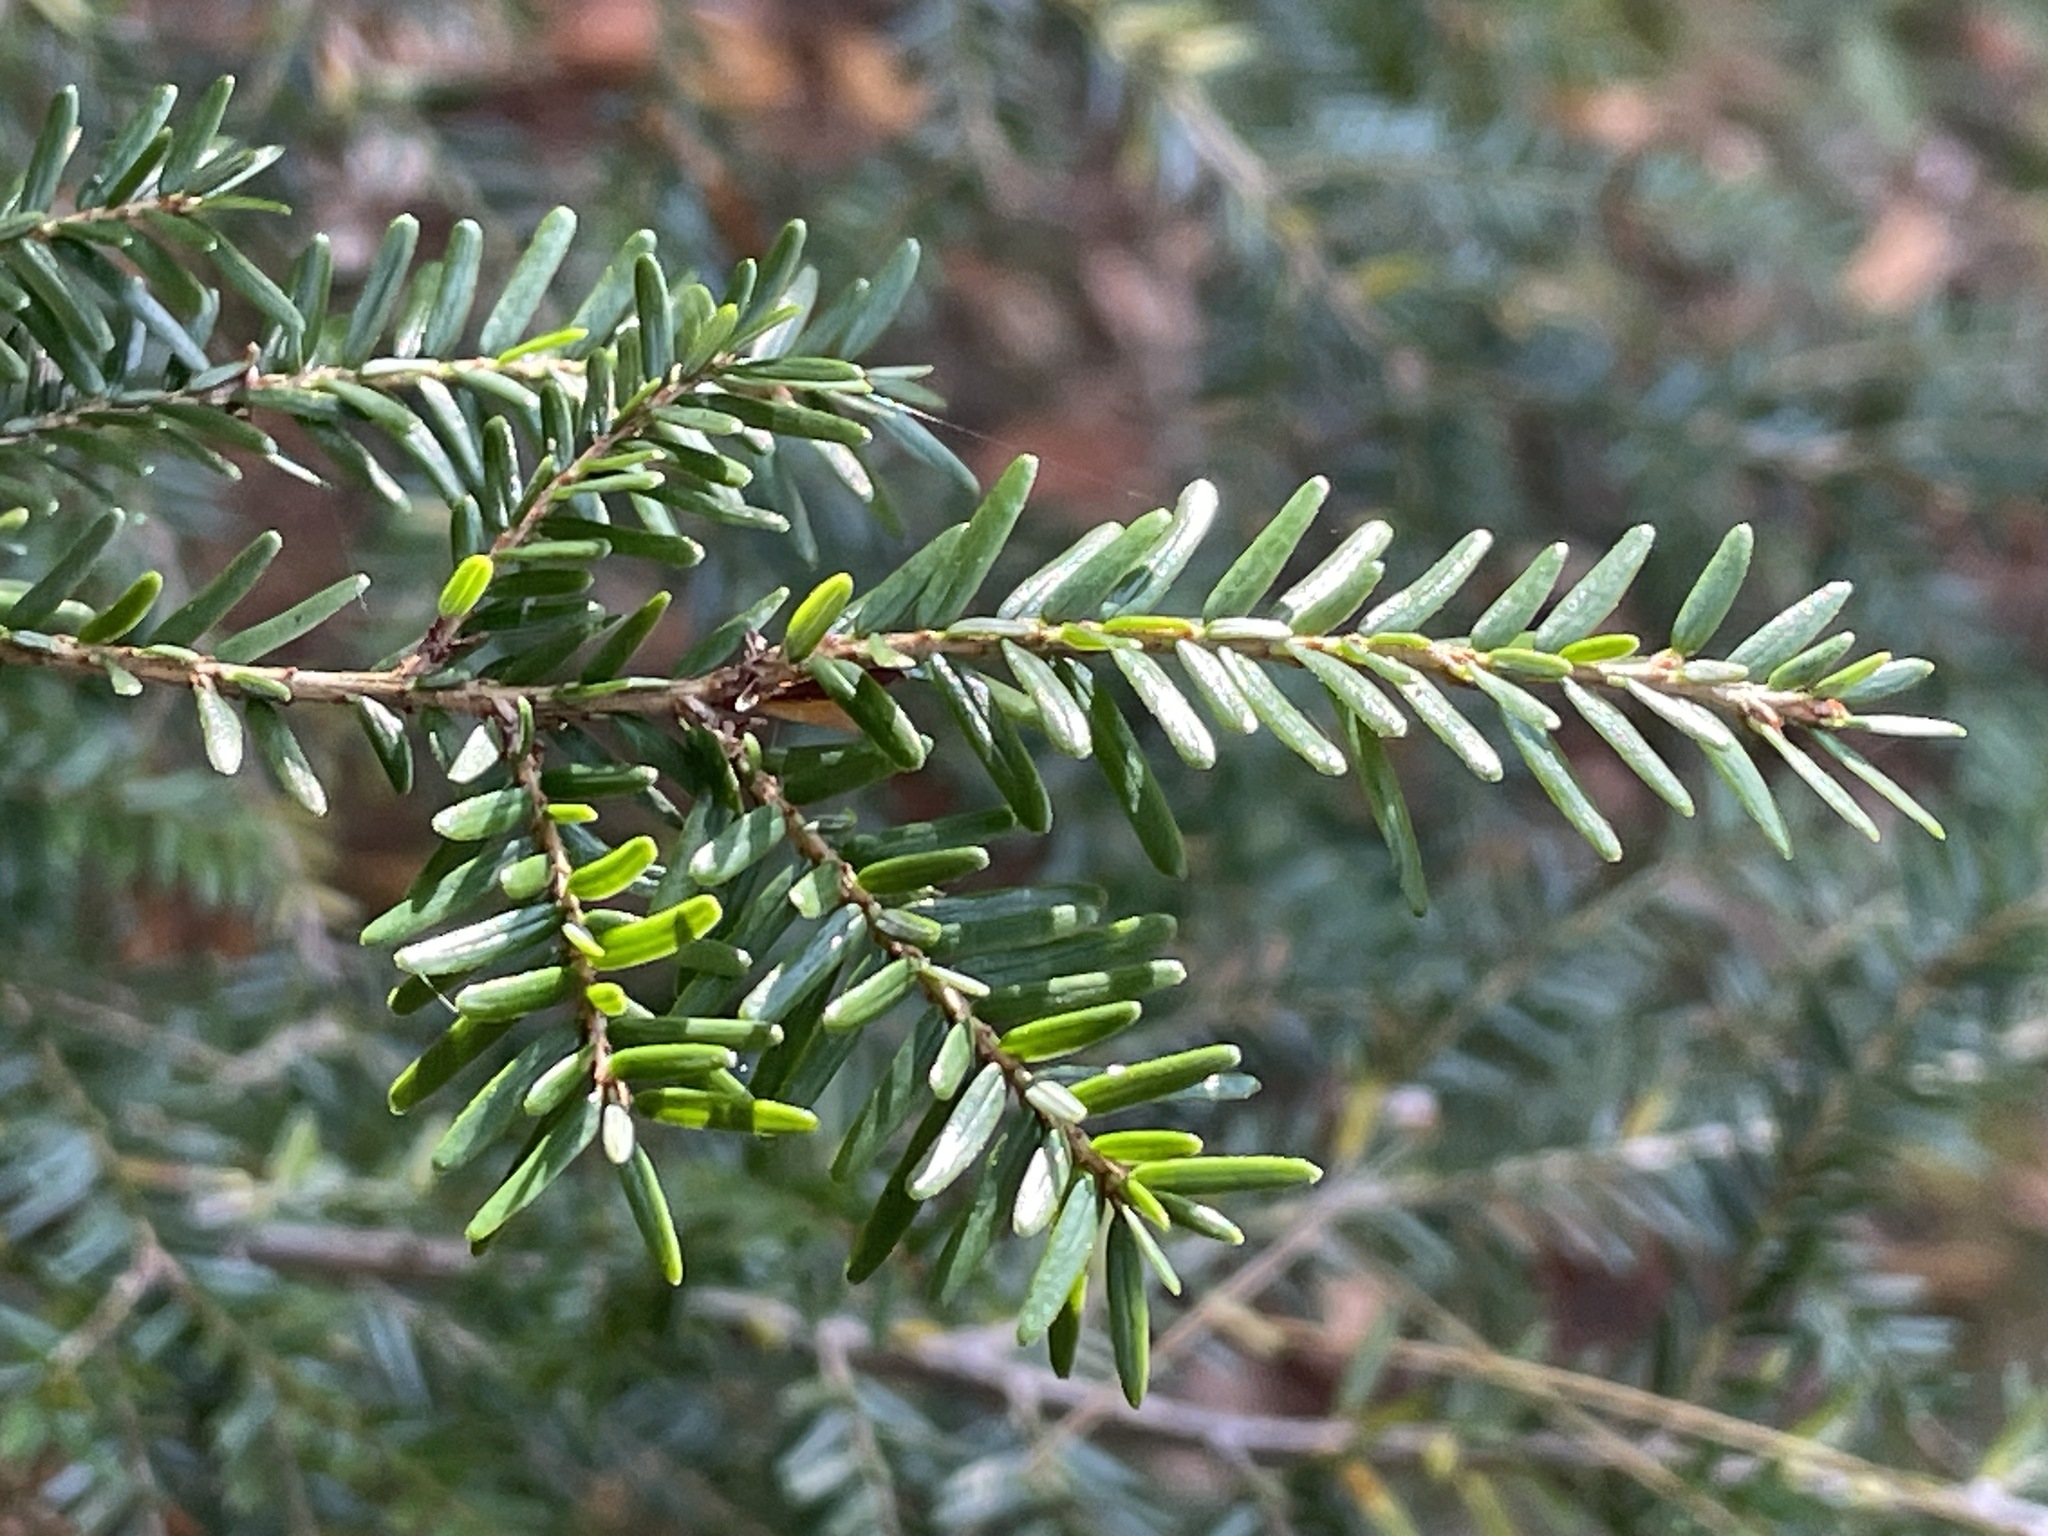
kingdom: Plantae
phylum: Tracheophyta
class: Pinopsida
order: Pinales
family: Pinaceae
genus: Tsuga
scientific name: Tsuga canadensis
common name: Eastern hemlock
